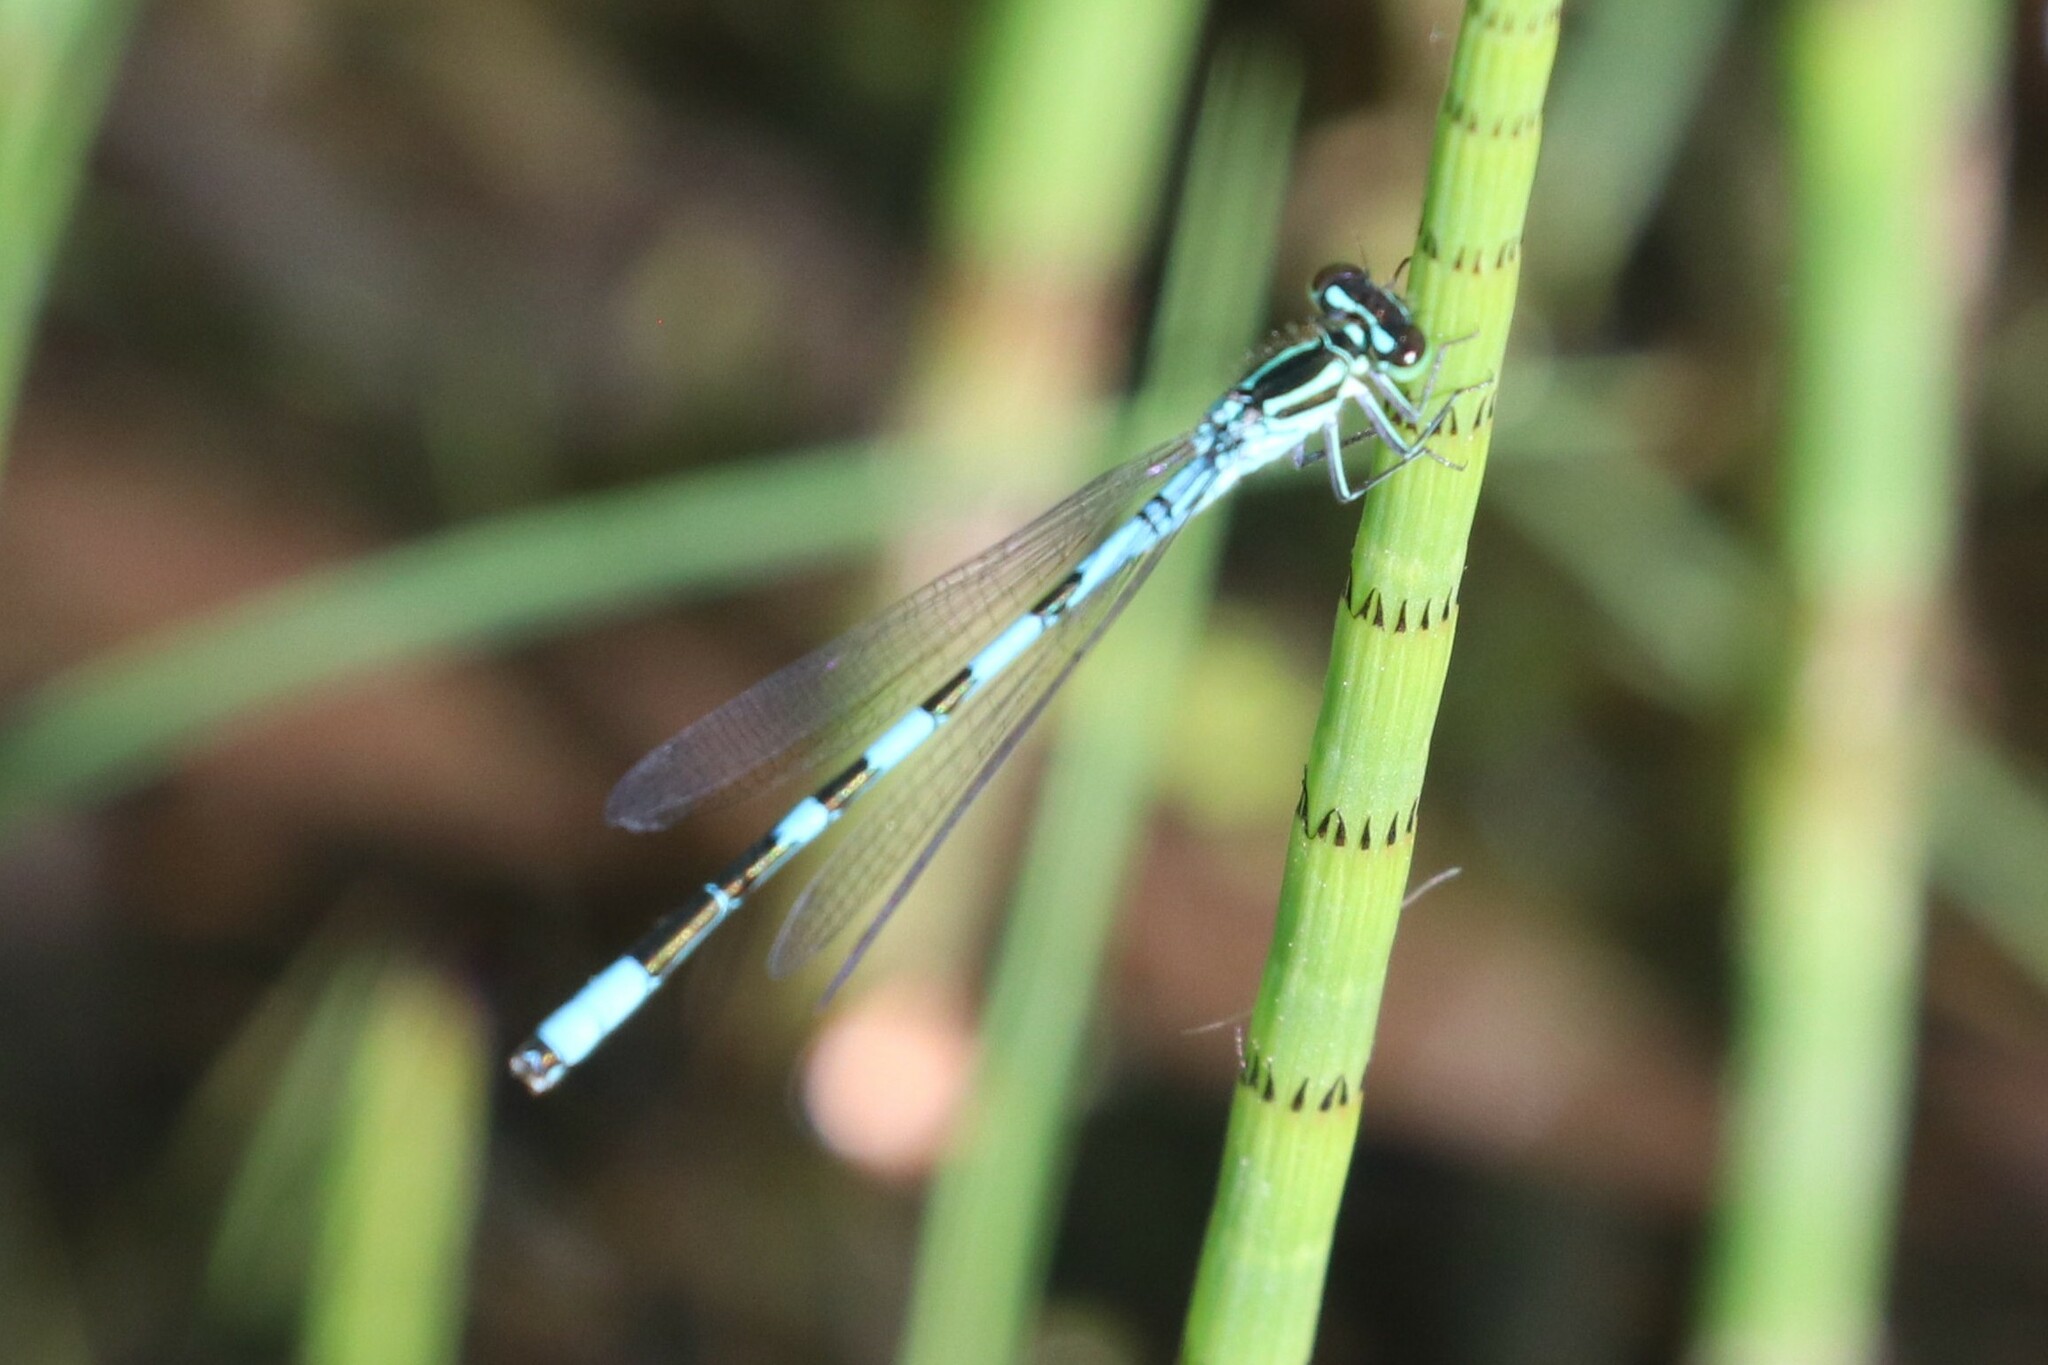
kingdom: Animalia
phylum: Arthropoda
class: Insecta
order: Odonata
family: Coenagrionidae
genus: Coenagrion
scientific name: Coenagrion hastulatum
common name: Spearhead bluet
